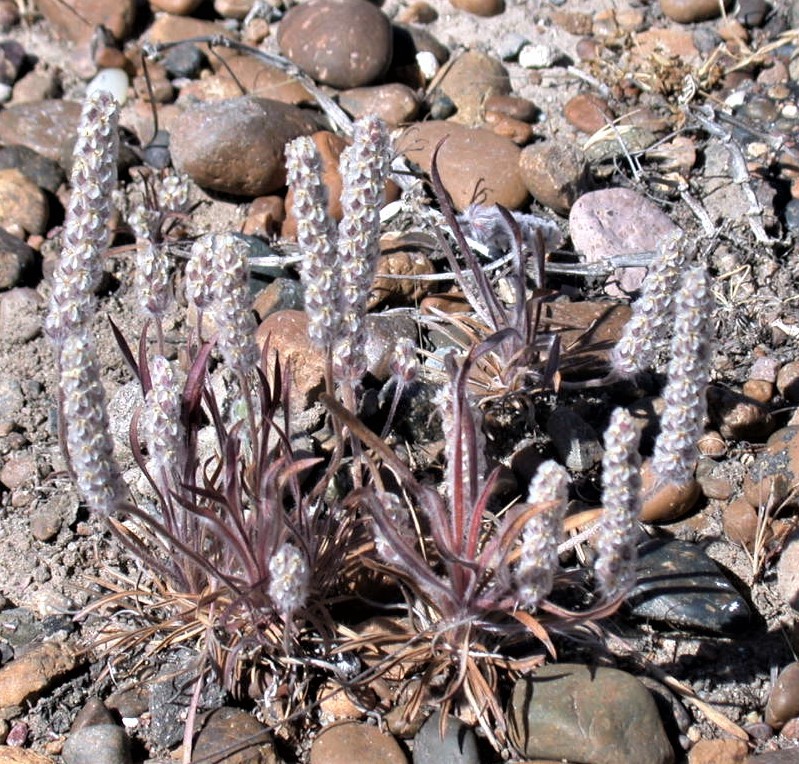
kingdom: Plantae
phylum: Tracheophyta
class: Magnoliopsida
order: Lamiales
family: Plantaginaceae
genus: Plantago
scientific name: Plantago patagonica
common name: Patagonia indian-wheat
